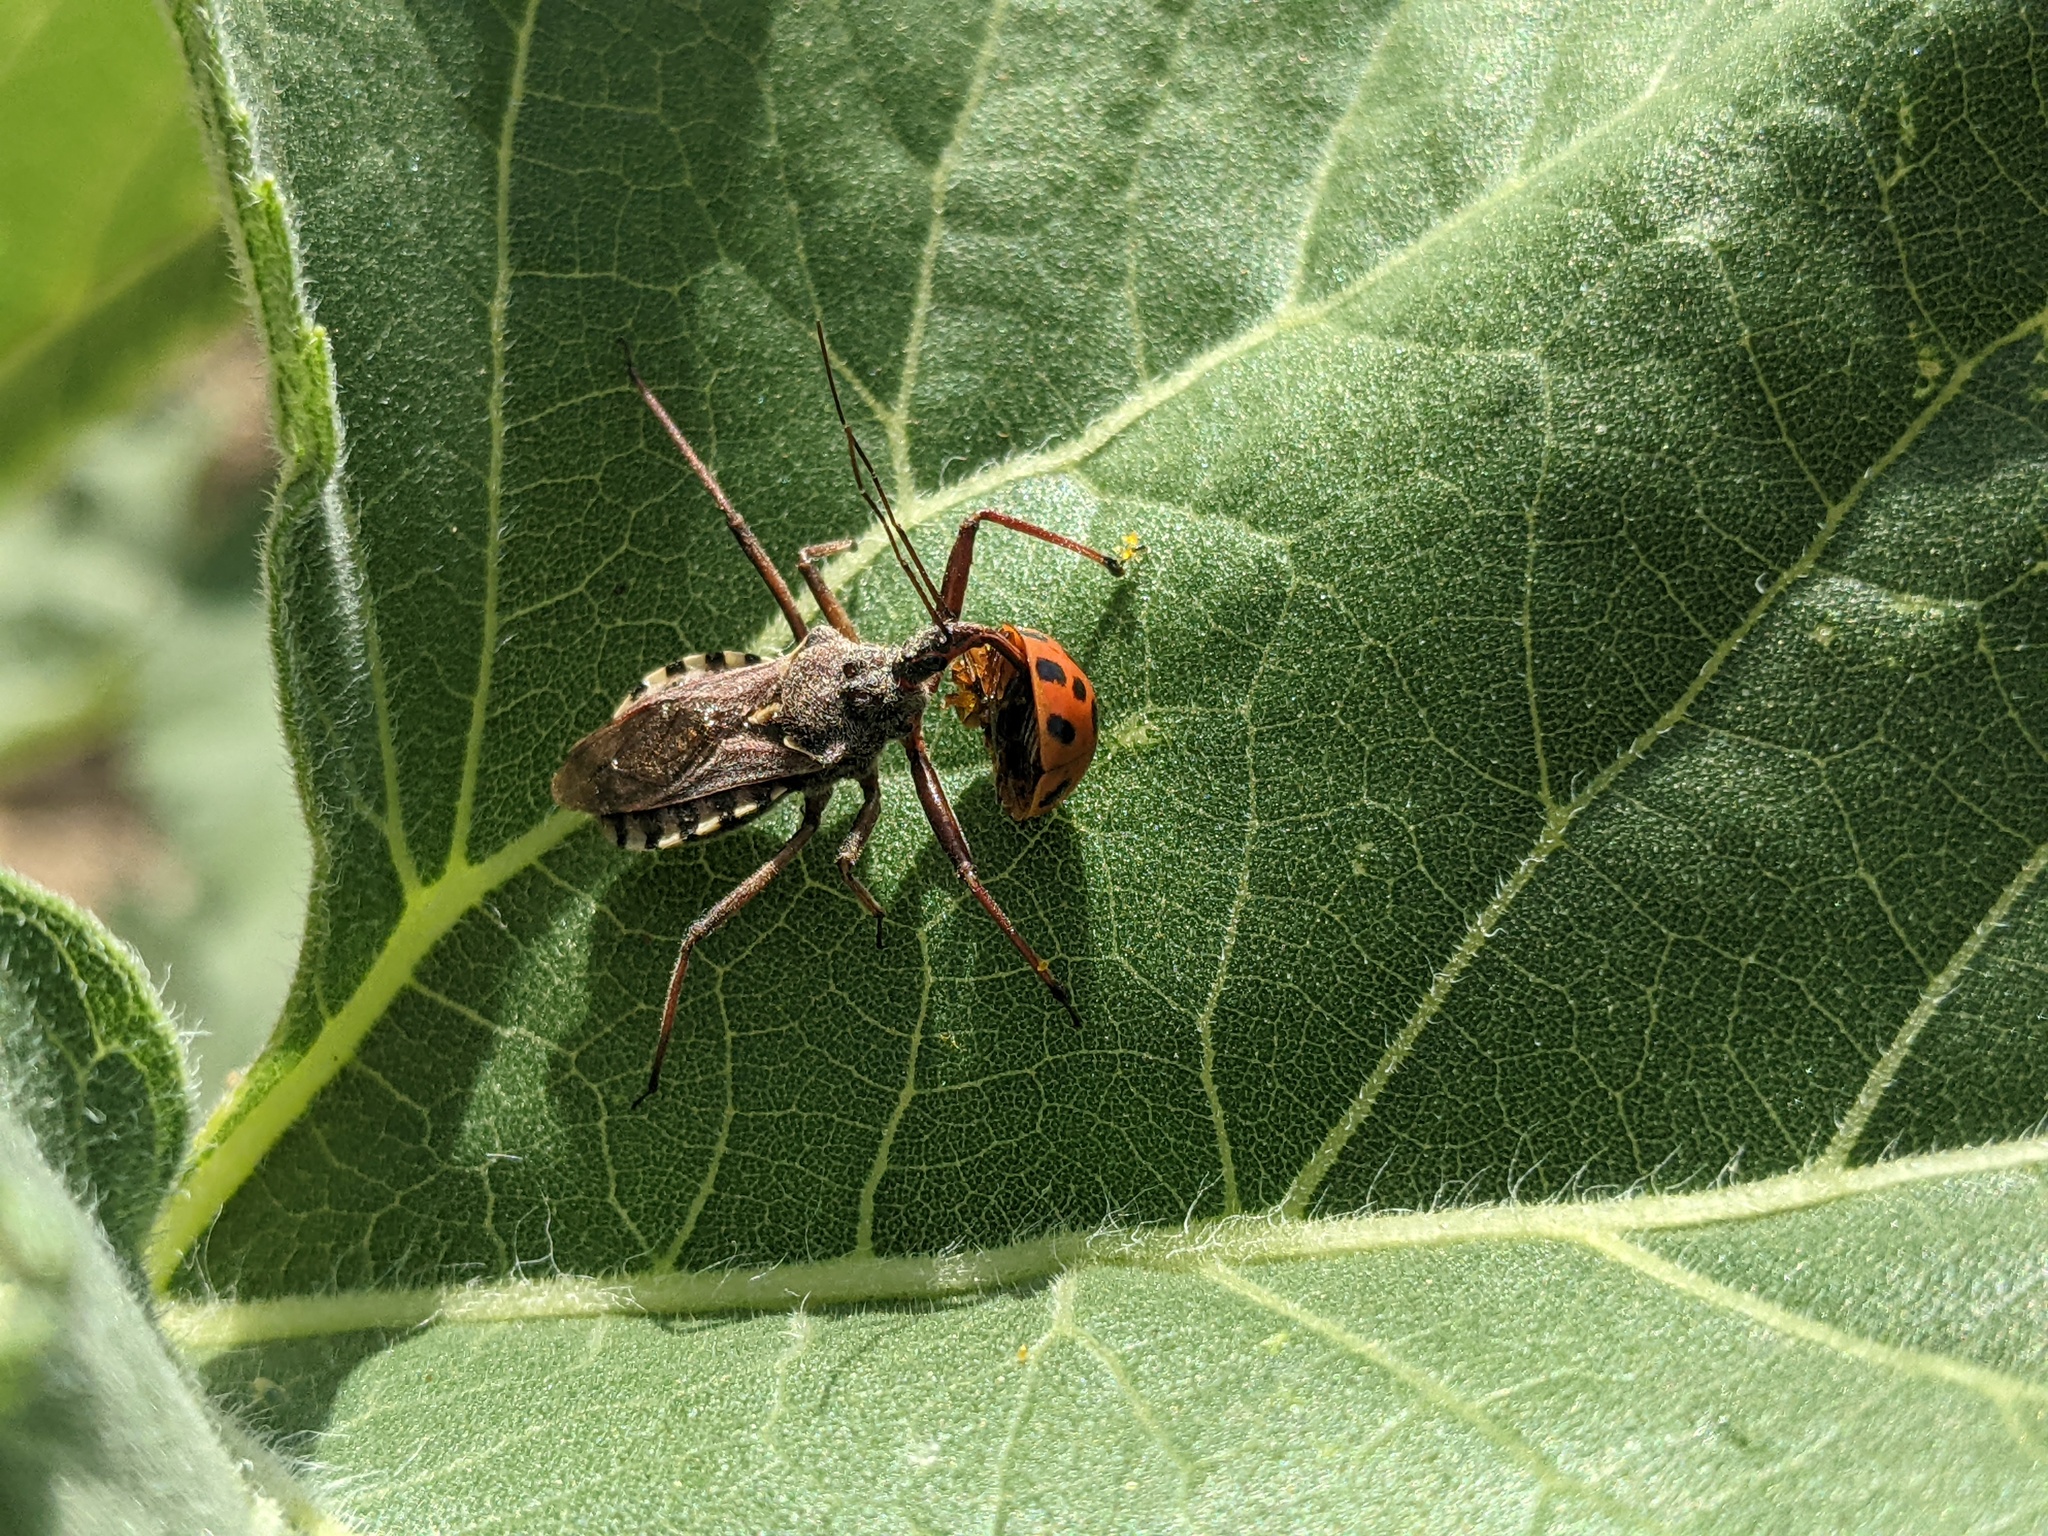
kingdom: Animalia
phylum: Arthropoda
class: Insecta
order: Hemiptera
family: Reduviidae
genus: Rhynocoris
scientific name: Rhynocoris erythropus
